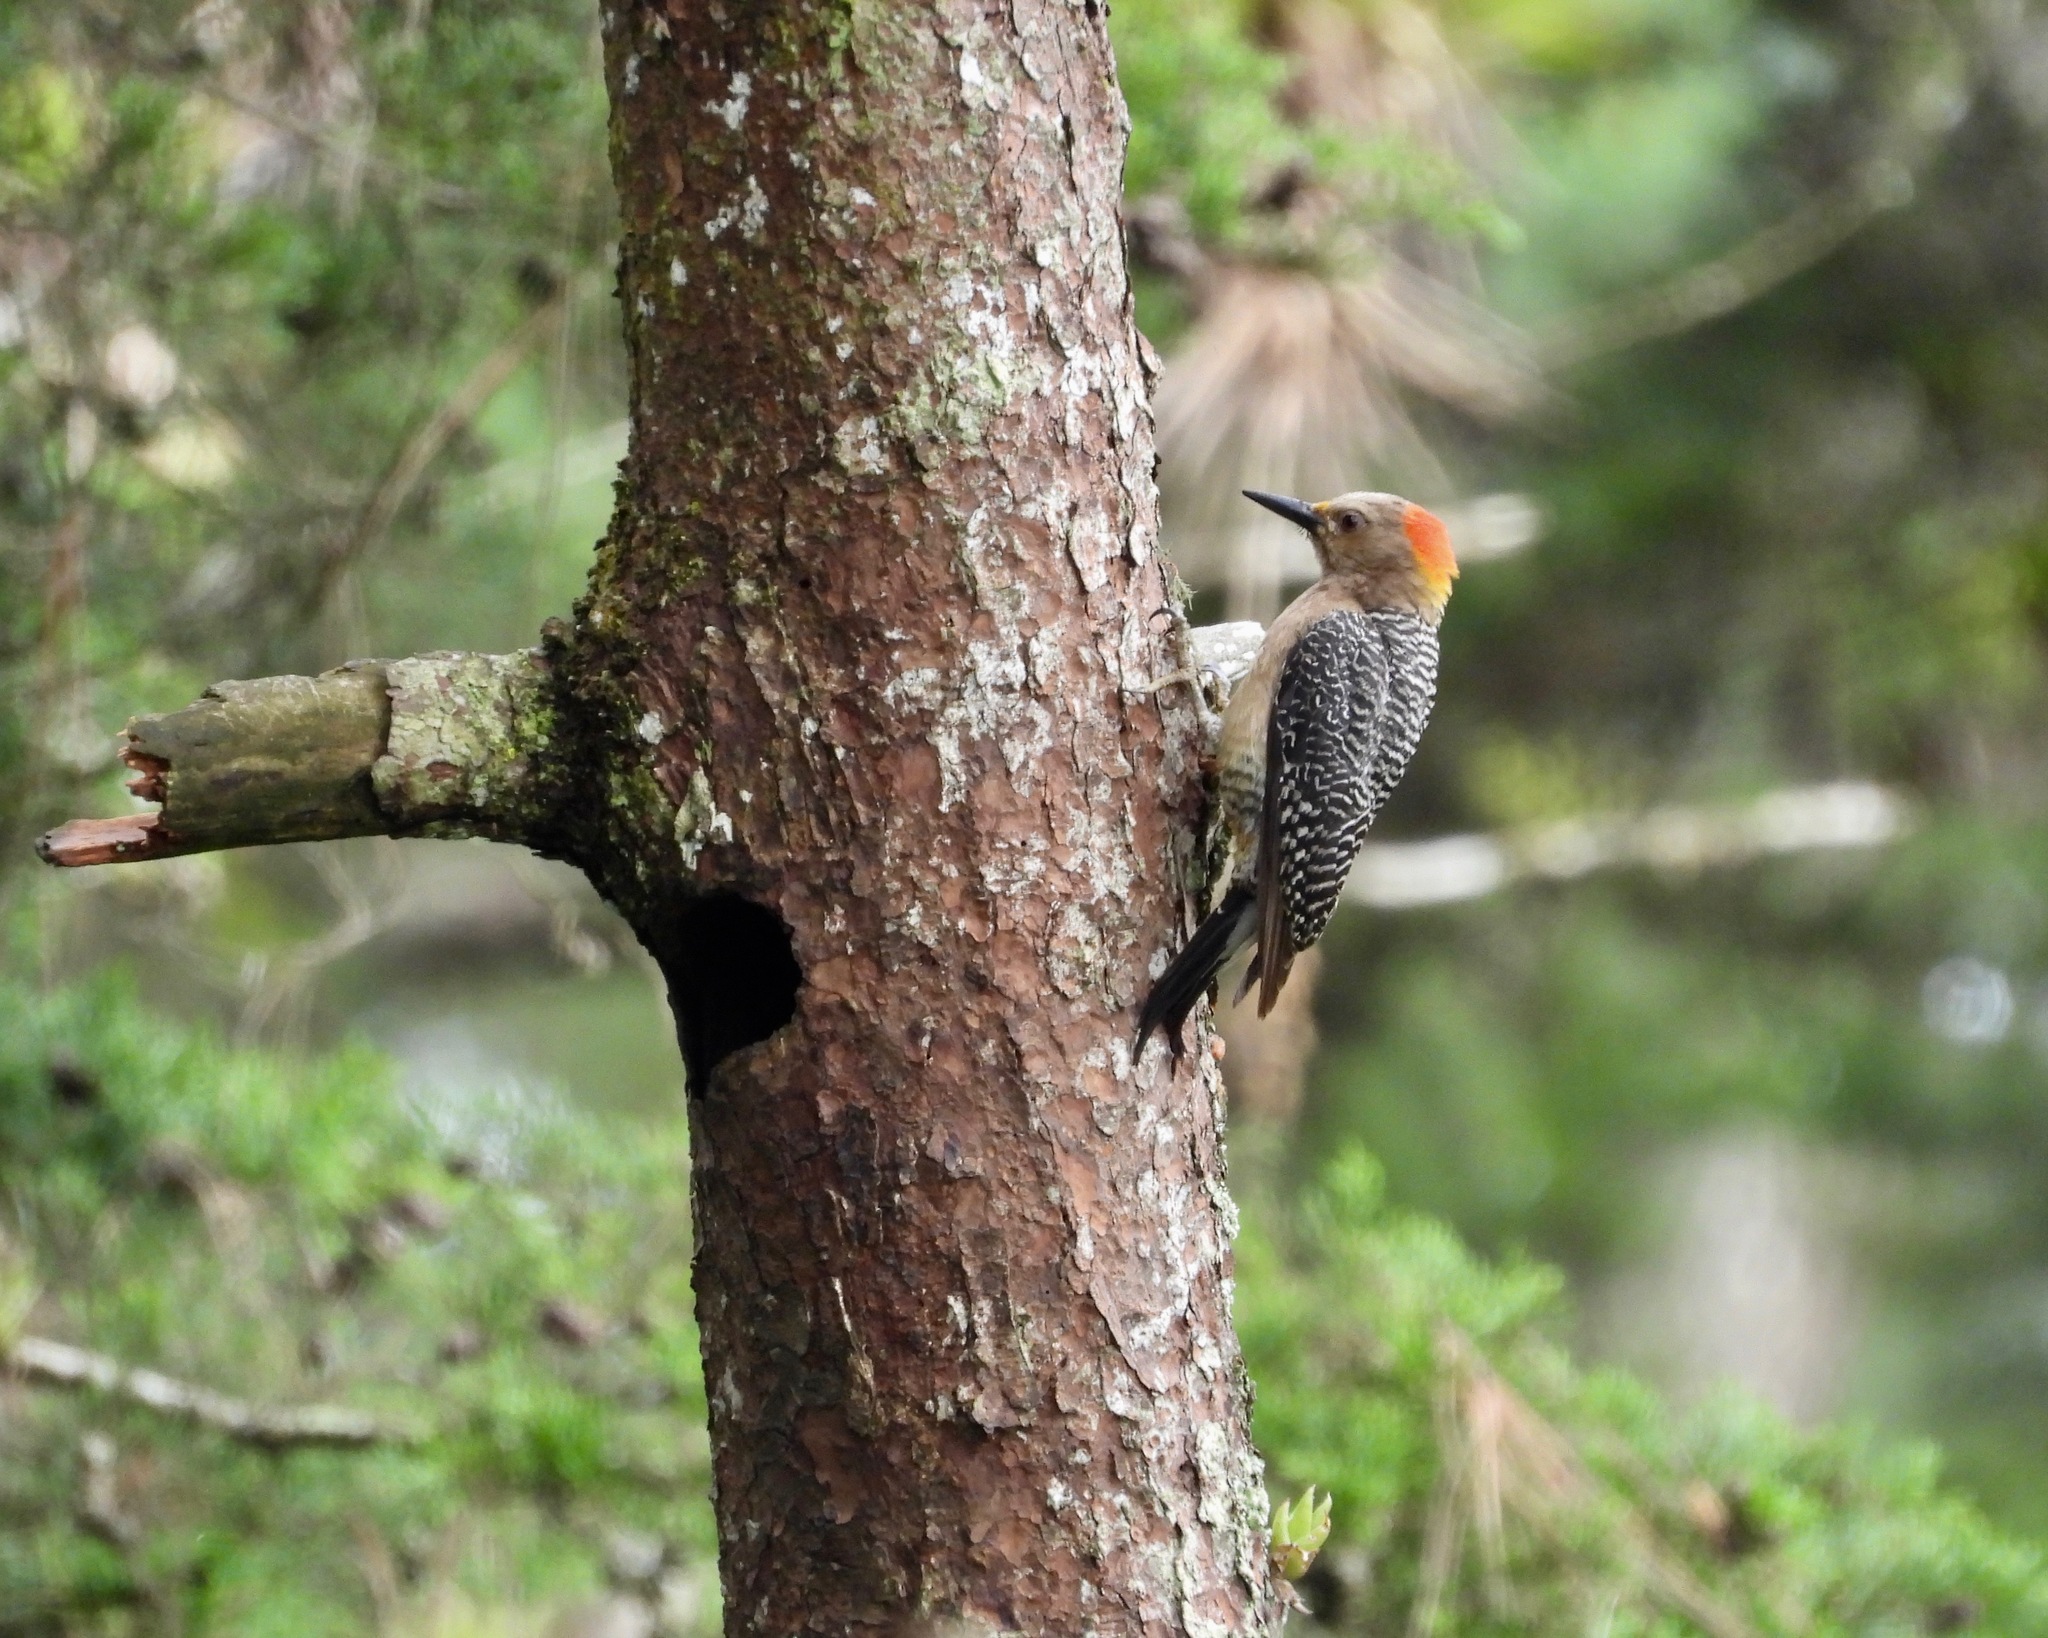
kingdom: Animalia
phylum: Chordata
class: Aves
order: Piciformes
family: Picidae
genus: Melanerpes
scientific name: Melanerpes aurifrons
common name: Golden-fronted woodpecker
